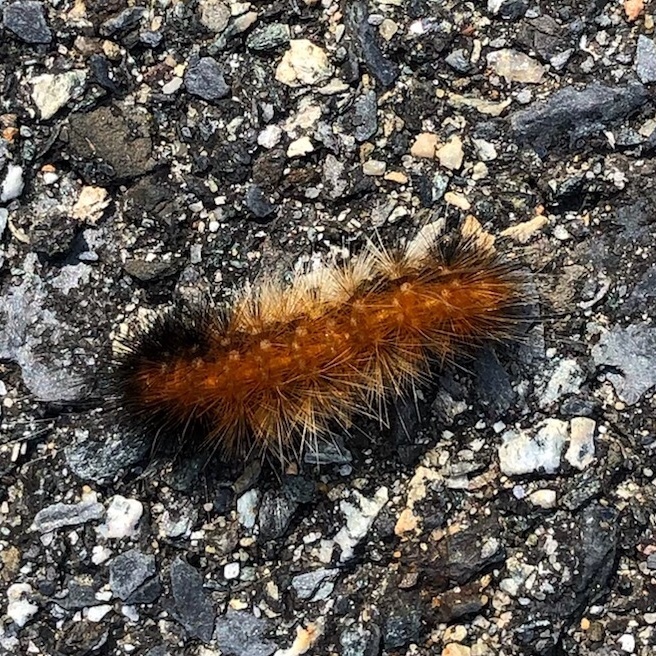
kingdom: Animalia
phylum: Arthropoda
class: Insecta
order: Lepidoptera
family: Erebidae
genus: Estigmene
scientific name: Estigmene acrea
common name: Salt marsh moth
